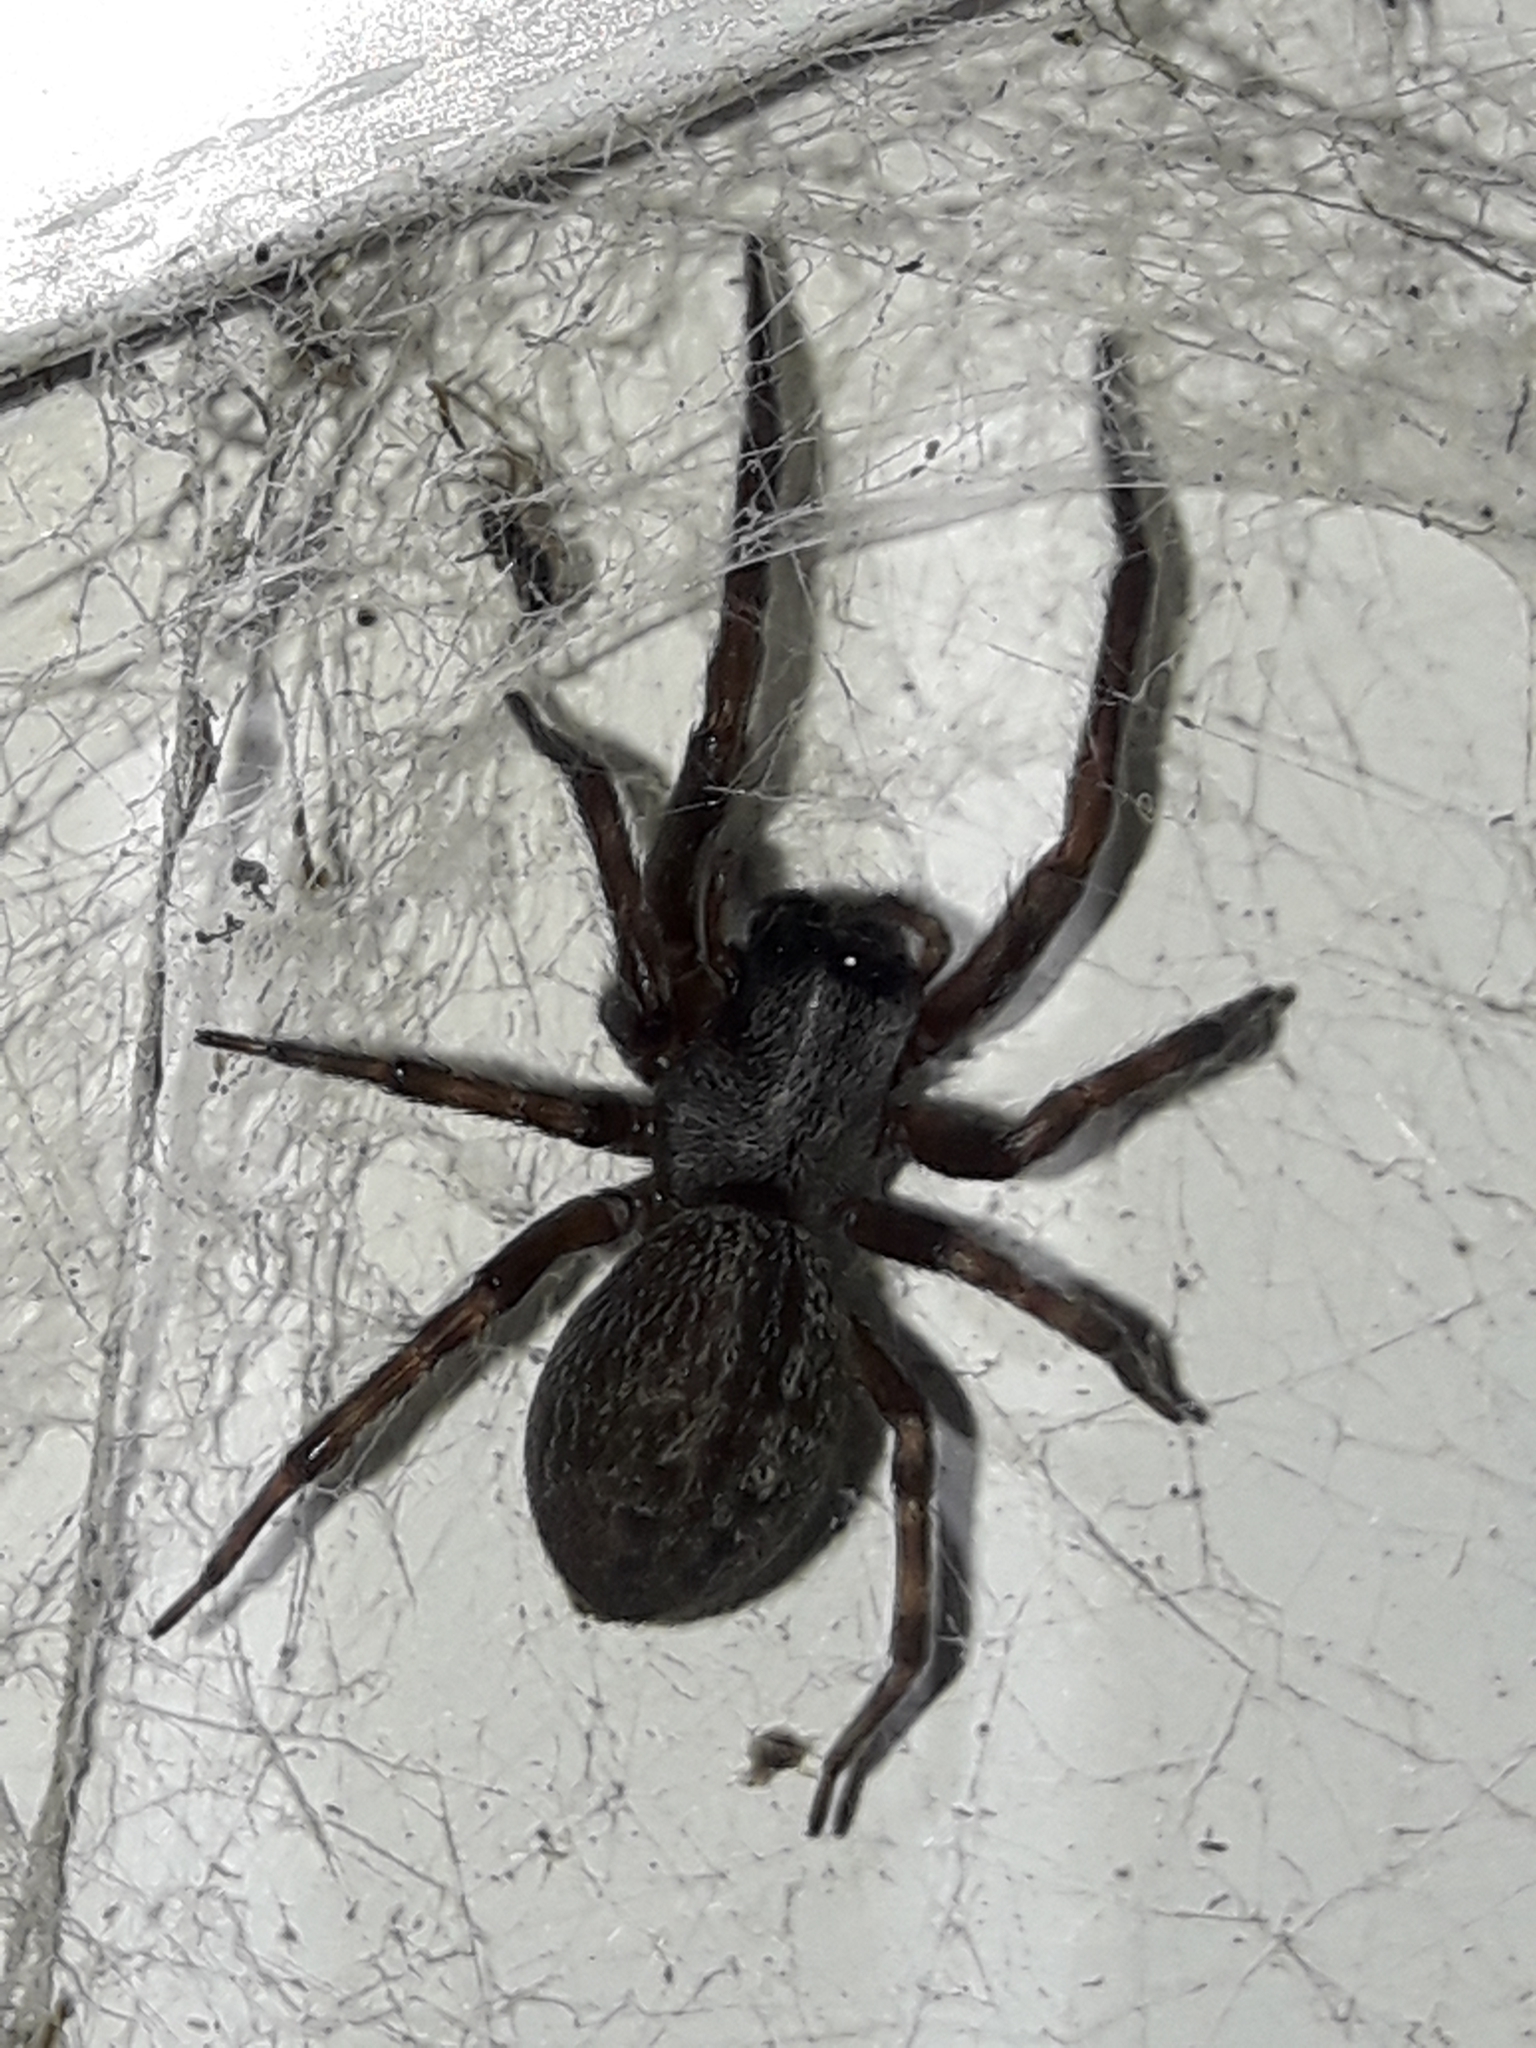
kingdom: Animalia
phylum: Arthropoda
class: Arachnida
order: Araneae
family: Desidae
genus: Badumna
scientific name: Badumna longinqua
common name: Gray house spider
